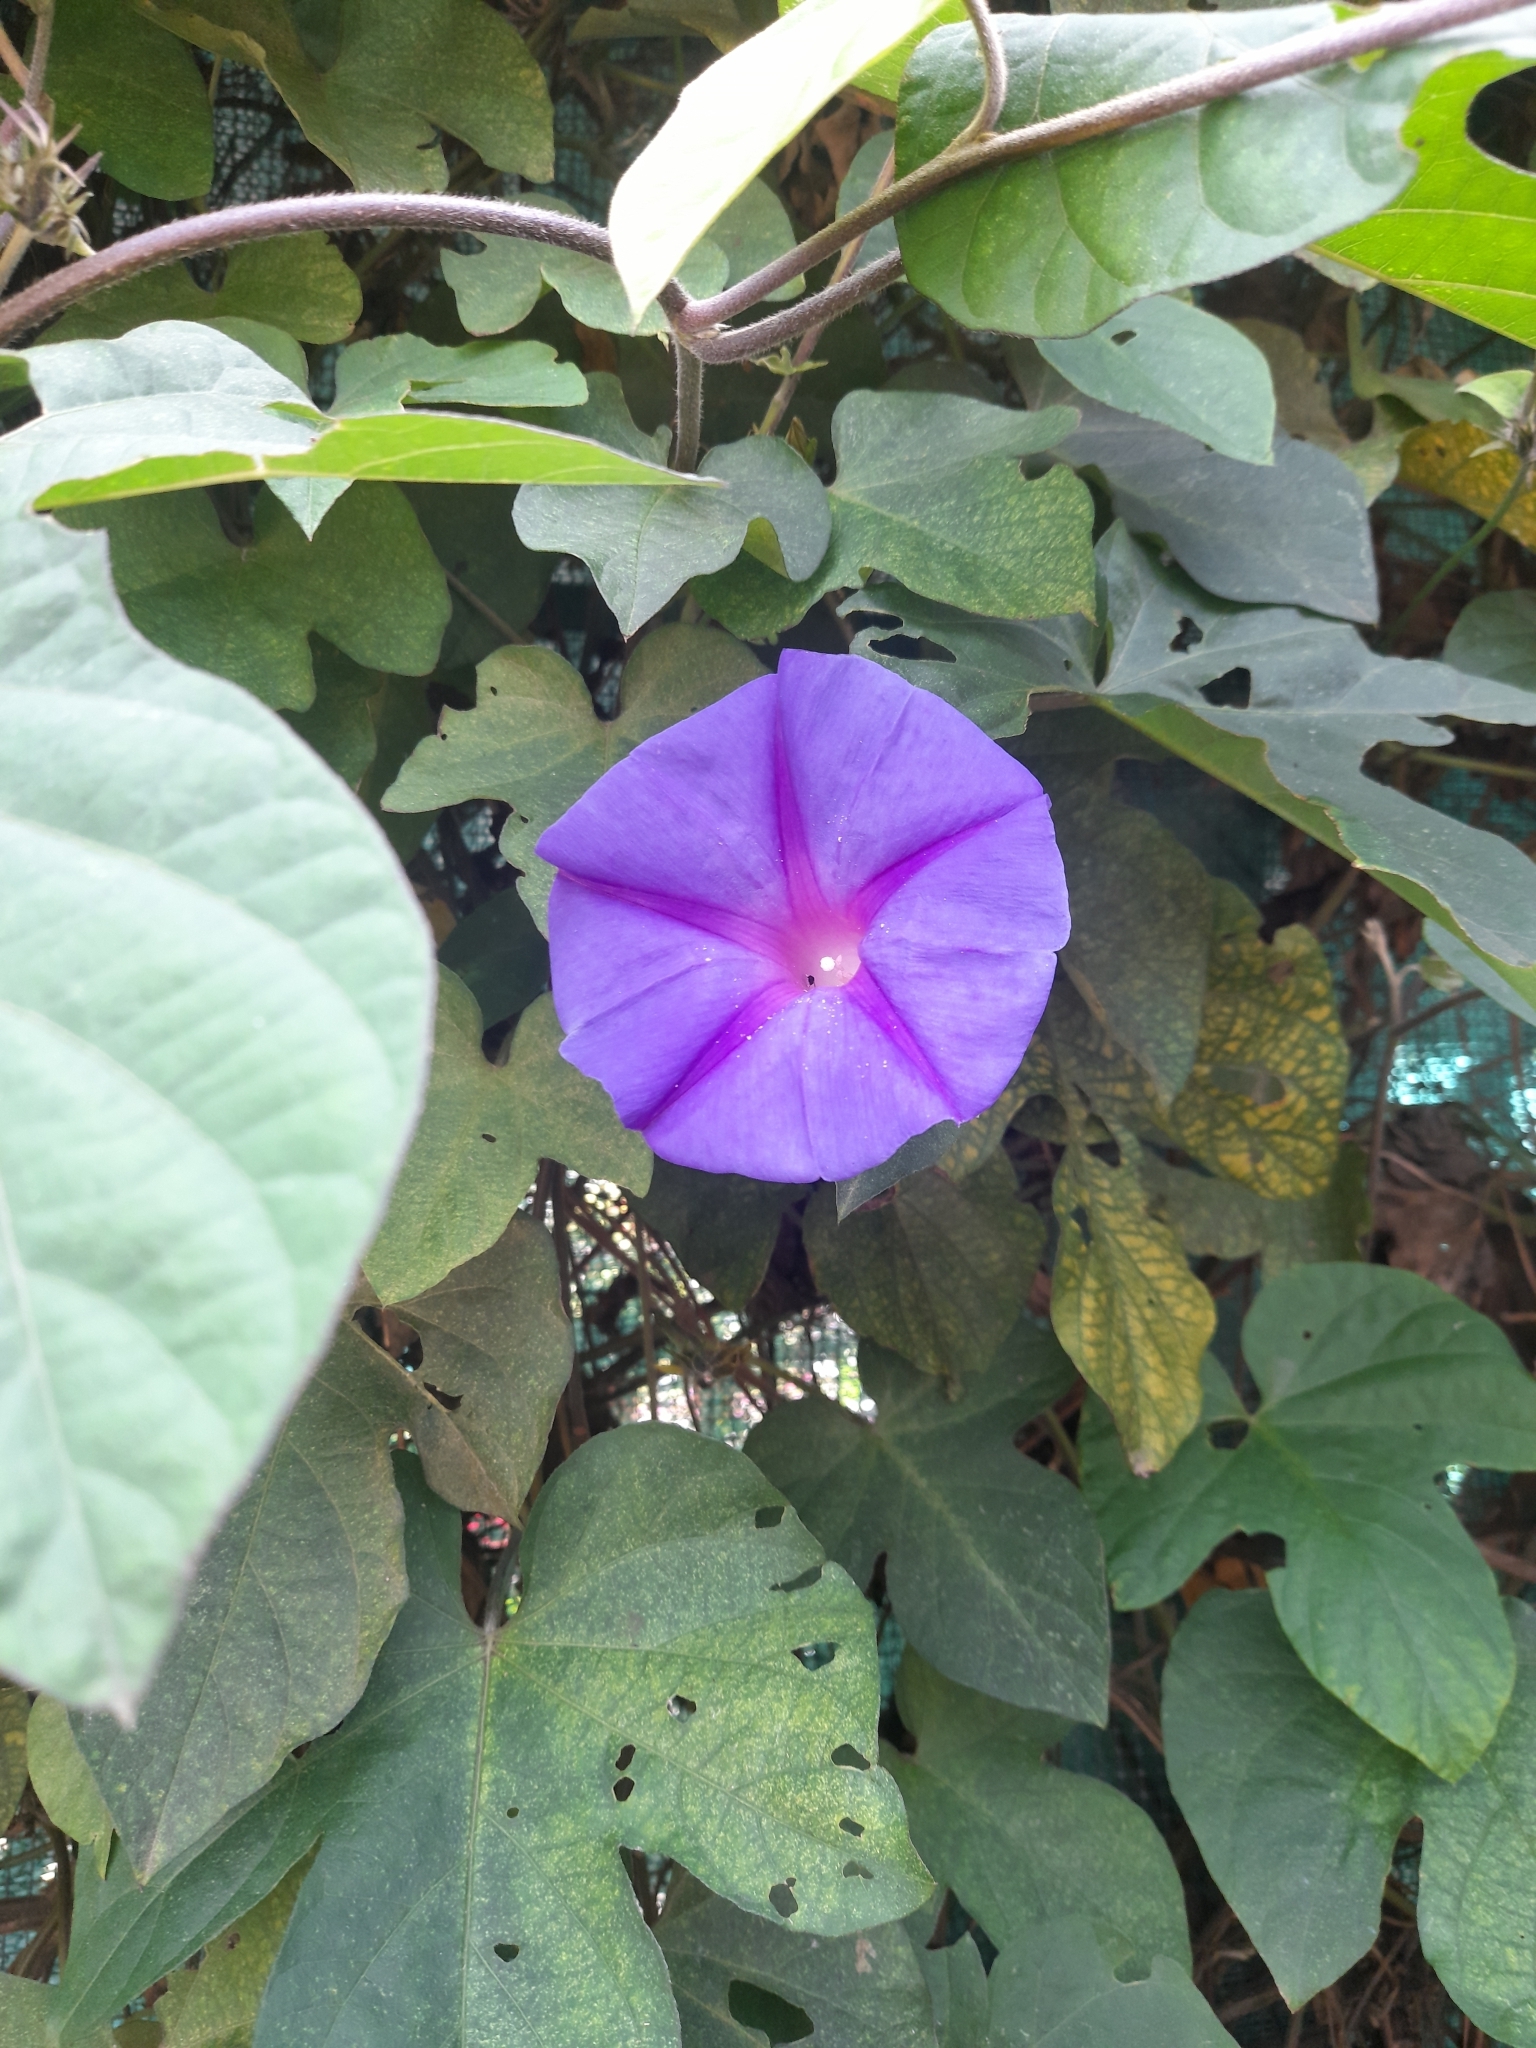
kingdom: Plantae
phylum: Tracheophyta
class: Magnoliopsida
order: Solanales
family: Convolvulaceae
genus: Ipomoea
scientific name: Ipomoea indica
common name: Blue dawnflower
